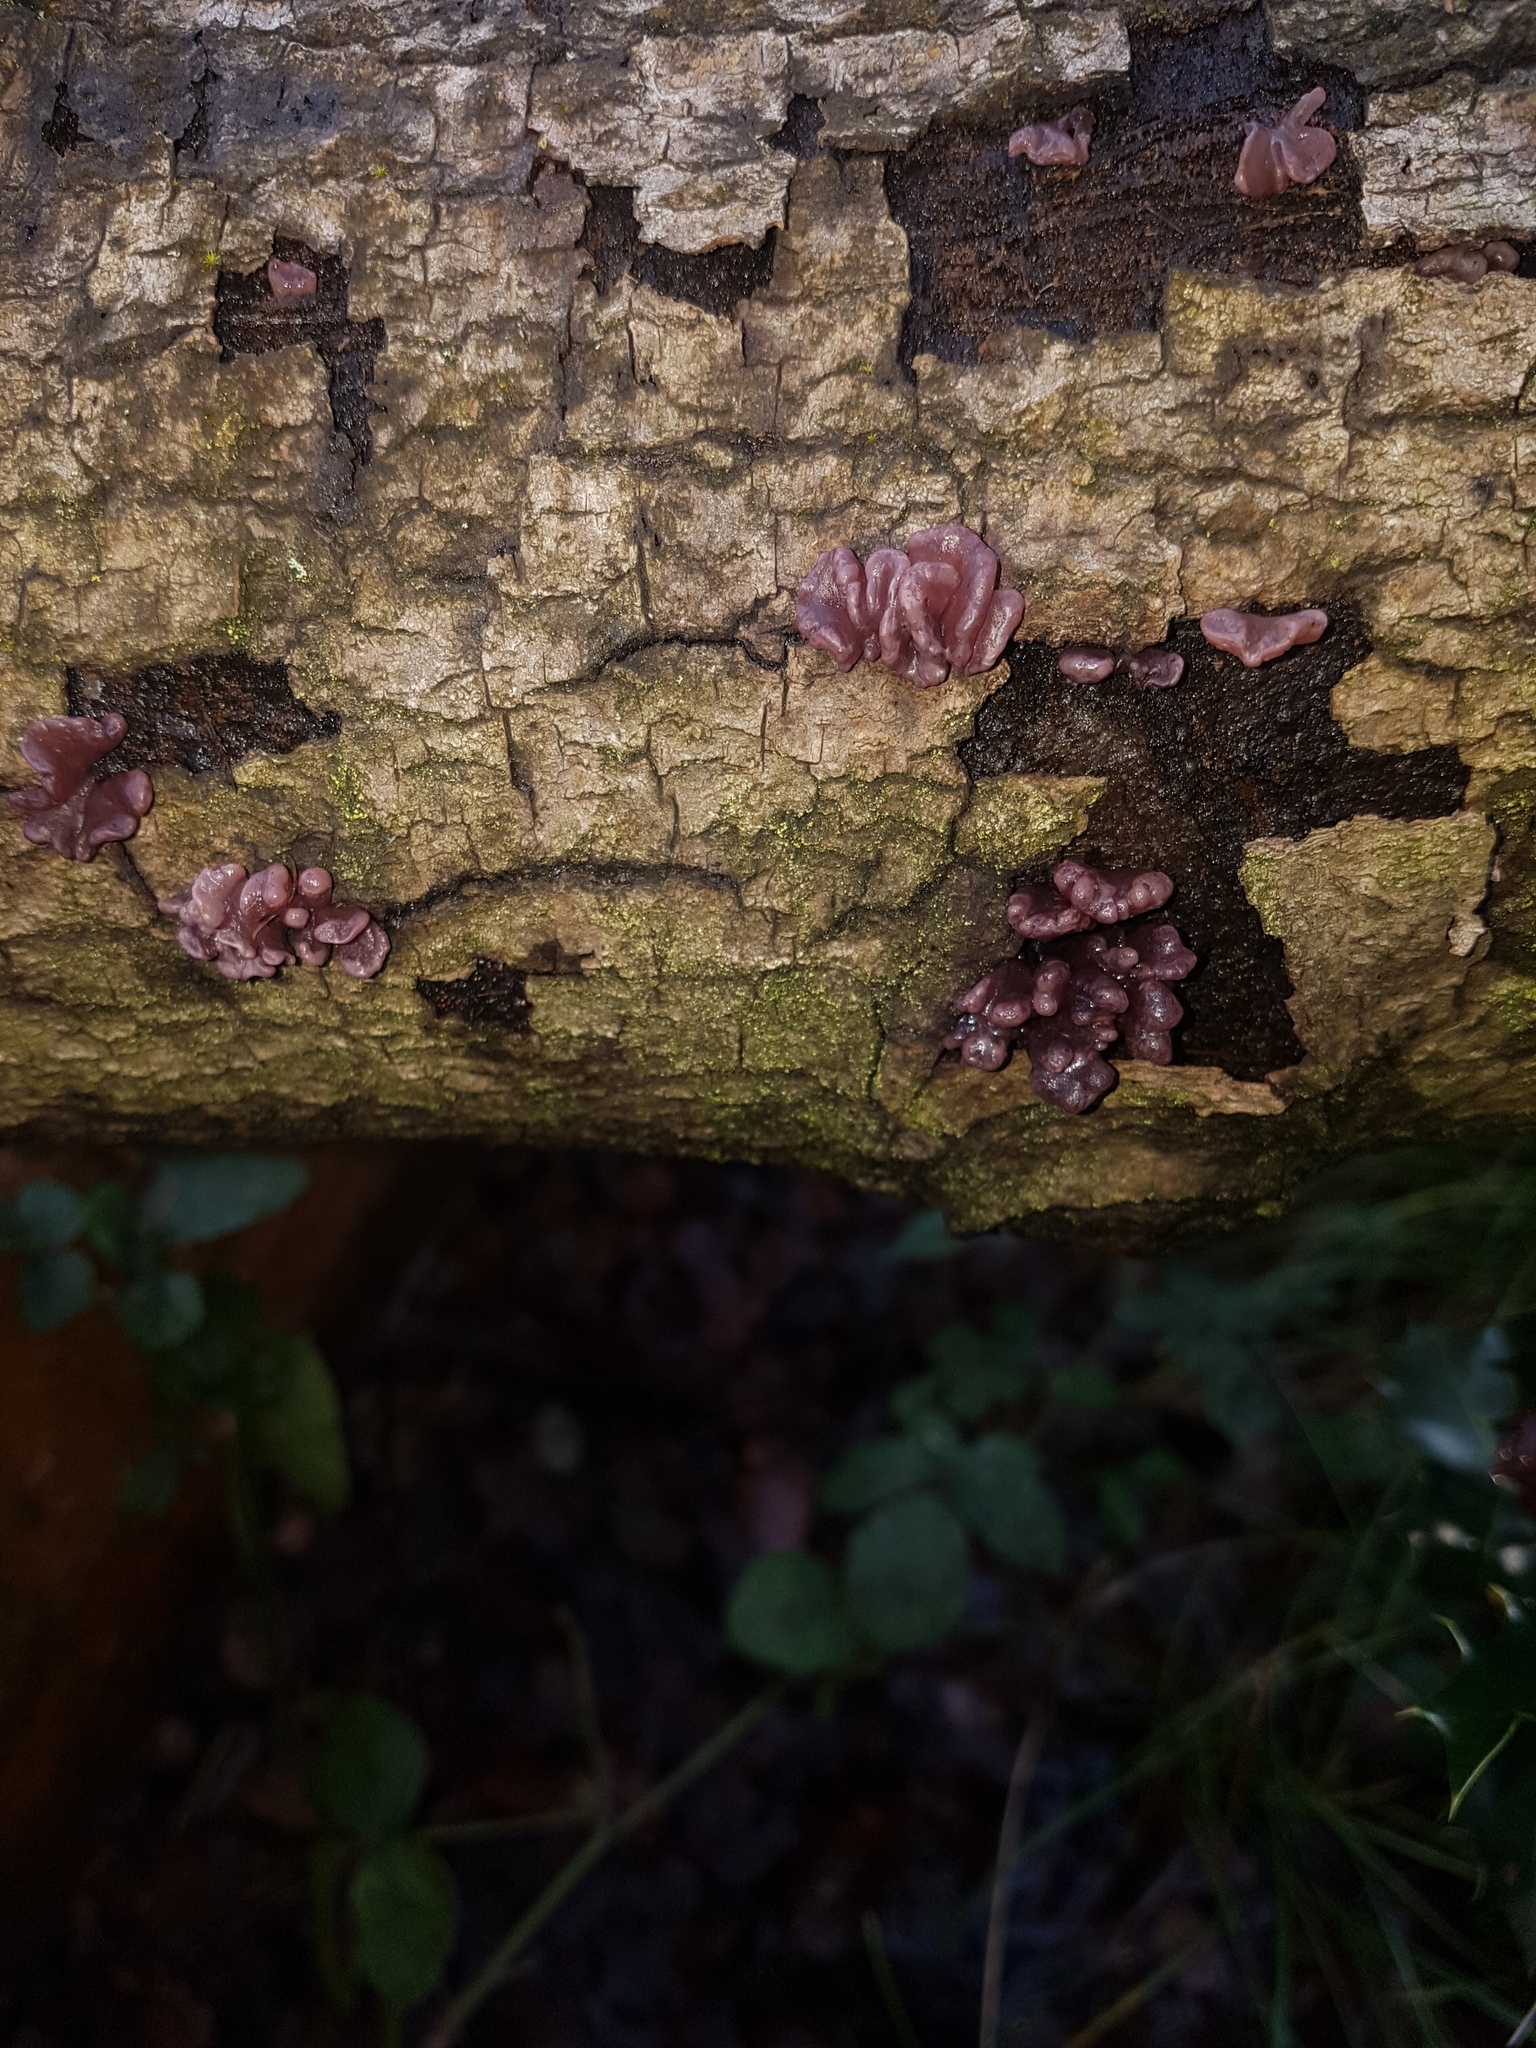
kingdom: Fungi
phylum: Ascomycota
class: Leotiomycetes
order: Helotiales
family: Gelatinodiscaceae
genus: Ascocoryne
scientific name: Ascocoryne sarcoides
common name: Purple jellydisc
